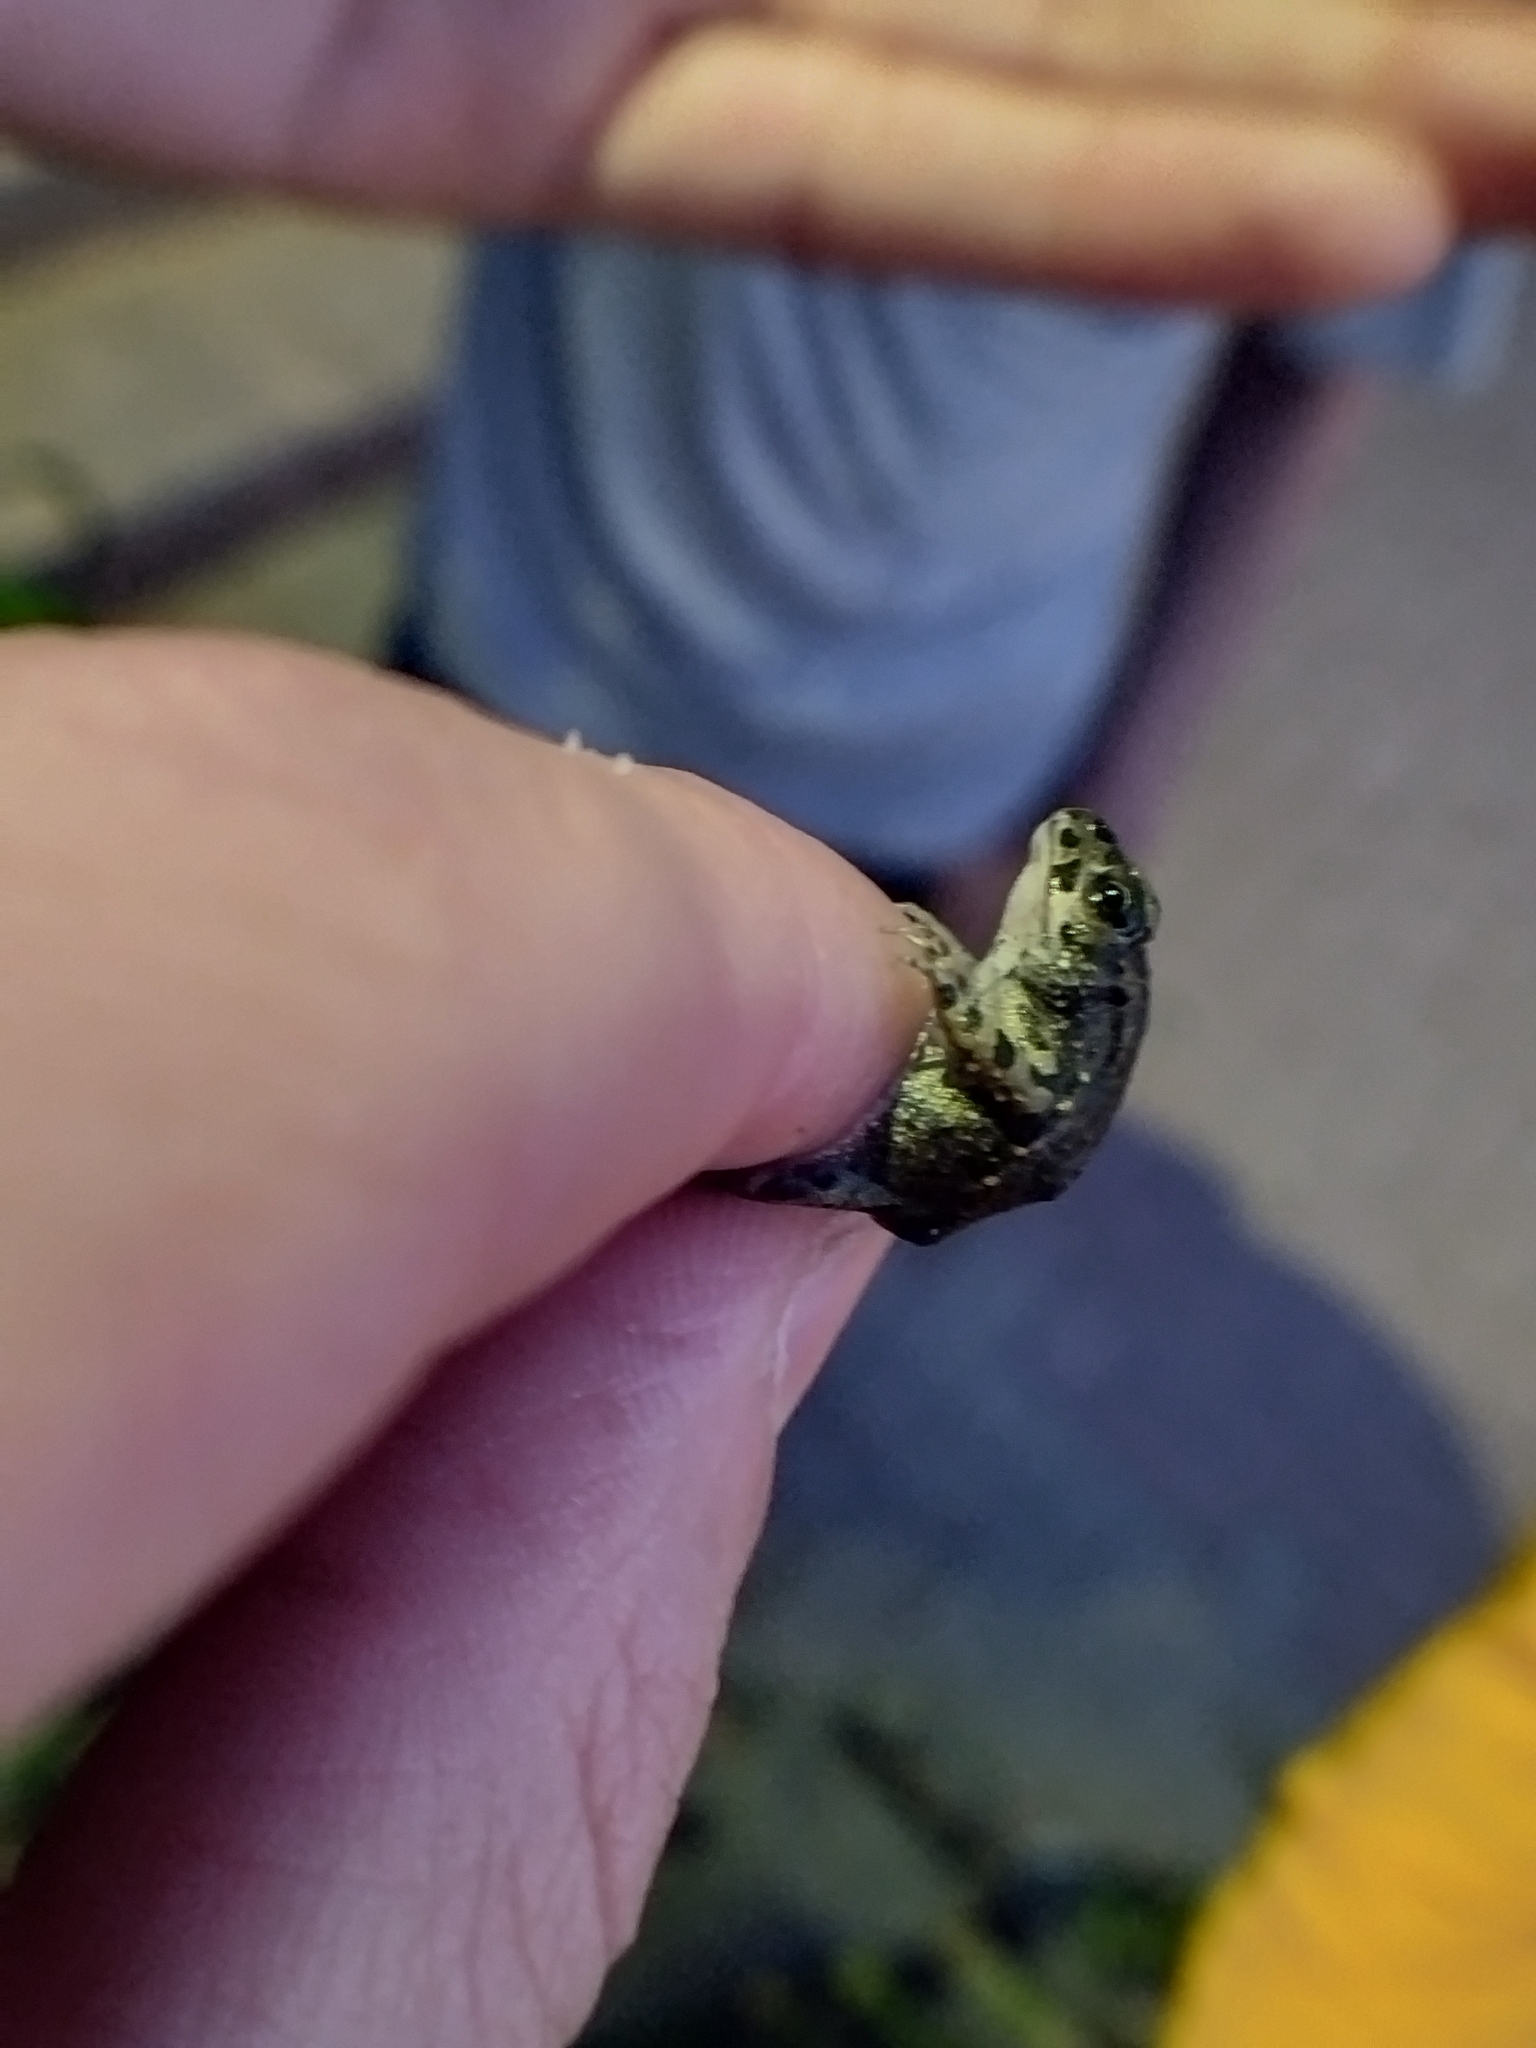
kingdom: Animalia
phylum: Chordata
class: Amphibia
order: Anura
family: Bufonidae
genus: Bufotes
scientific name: Bufotes viridis
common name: European green toad
